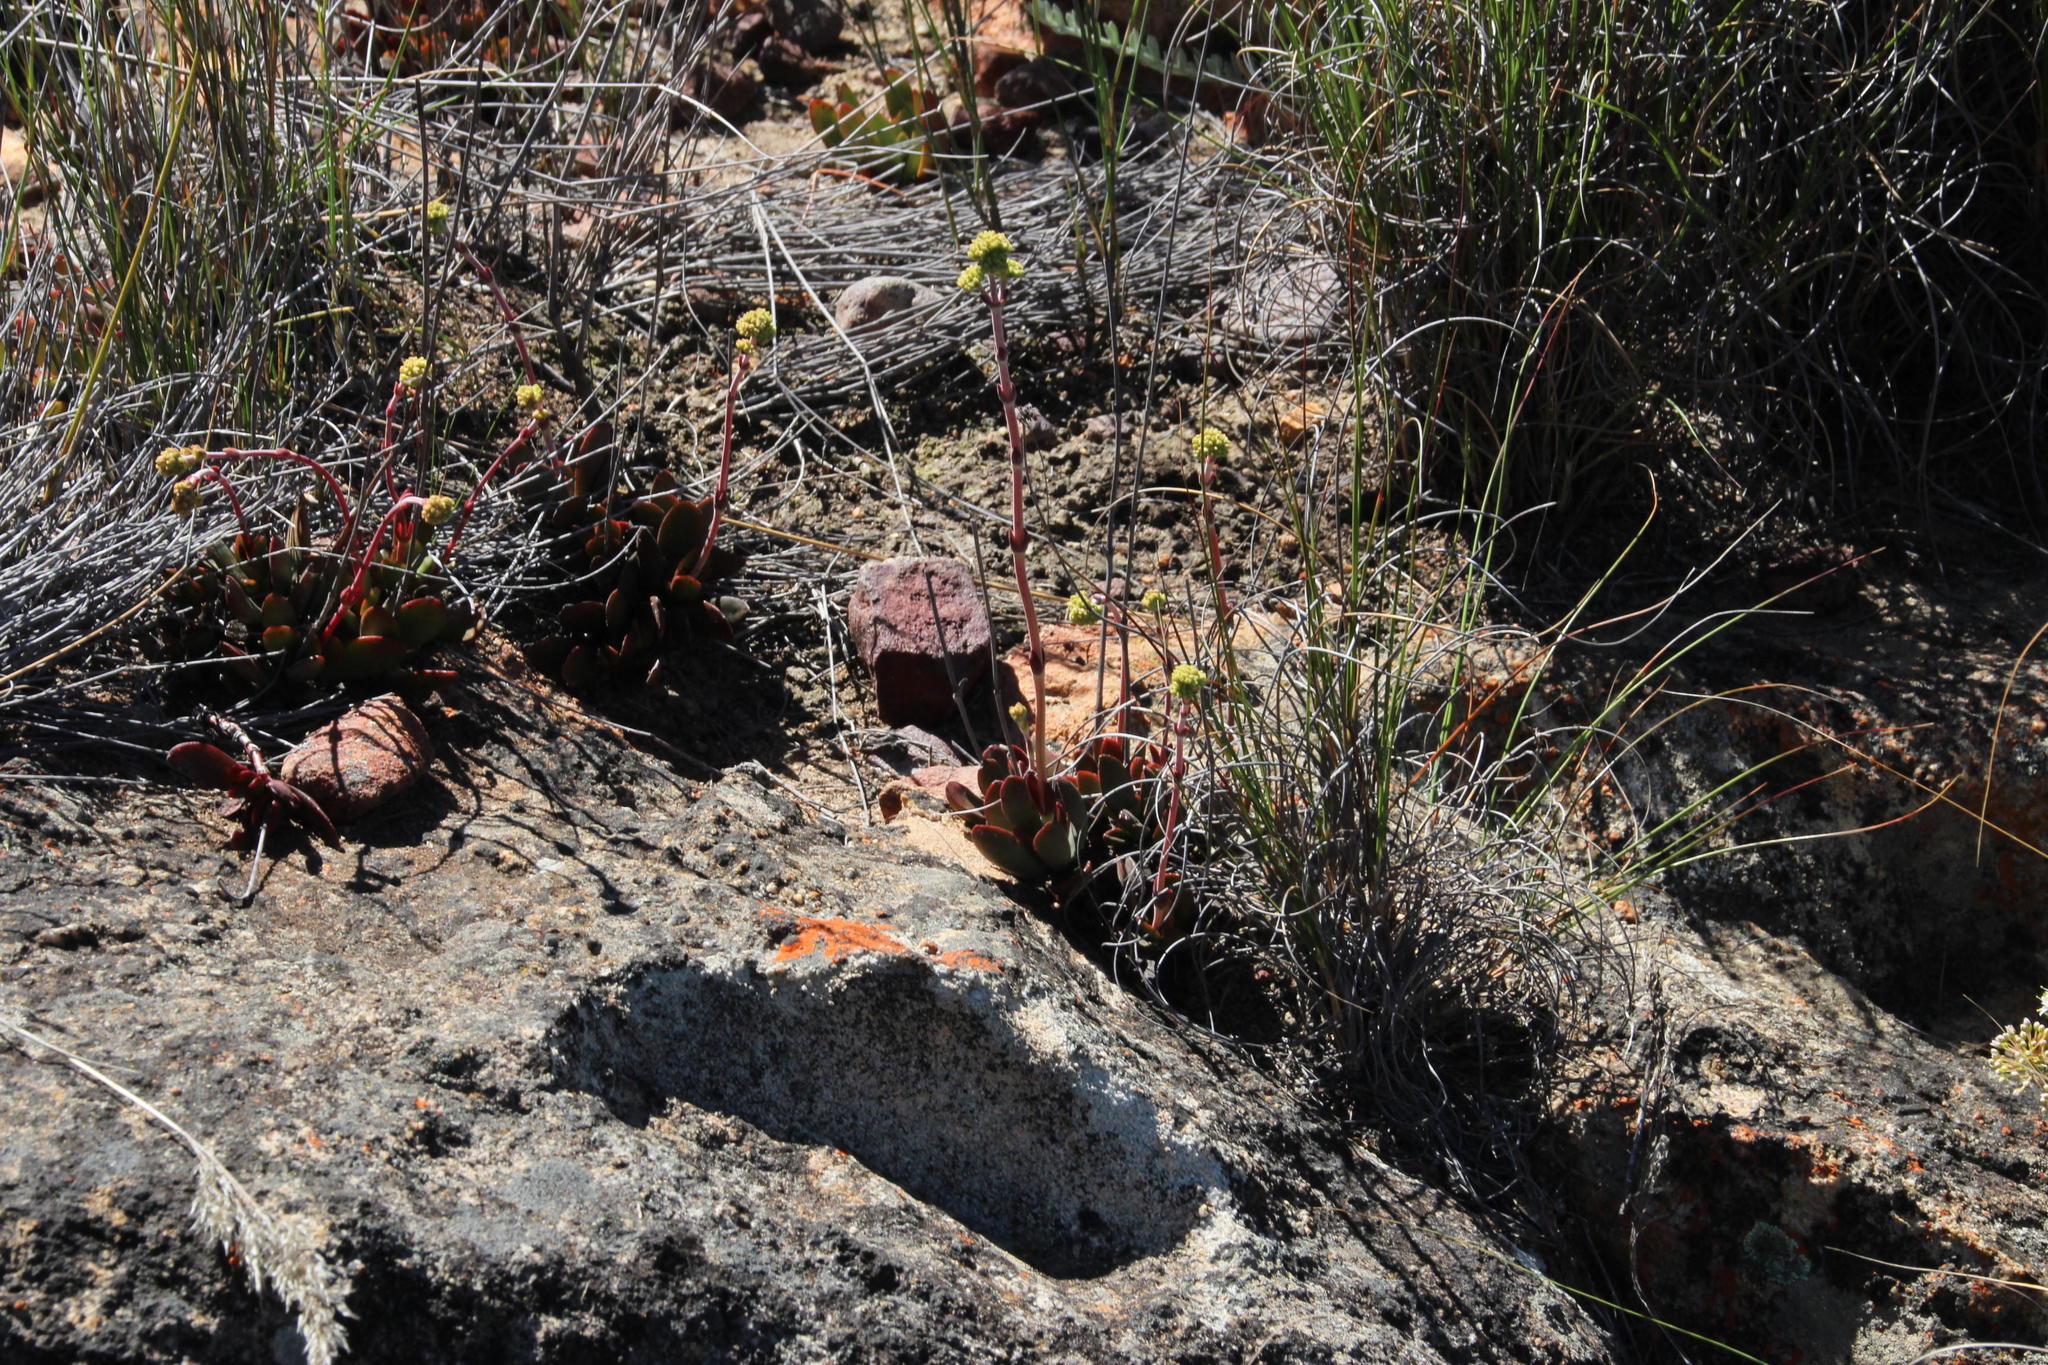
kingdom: Plantae
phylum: Tracheophyta
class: Magnoliopsida
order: Saxifragales
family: Crassulaceae
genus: Crassula
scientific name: Crassula clavata
